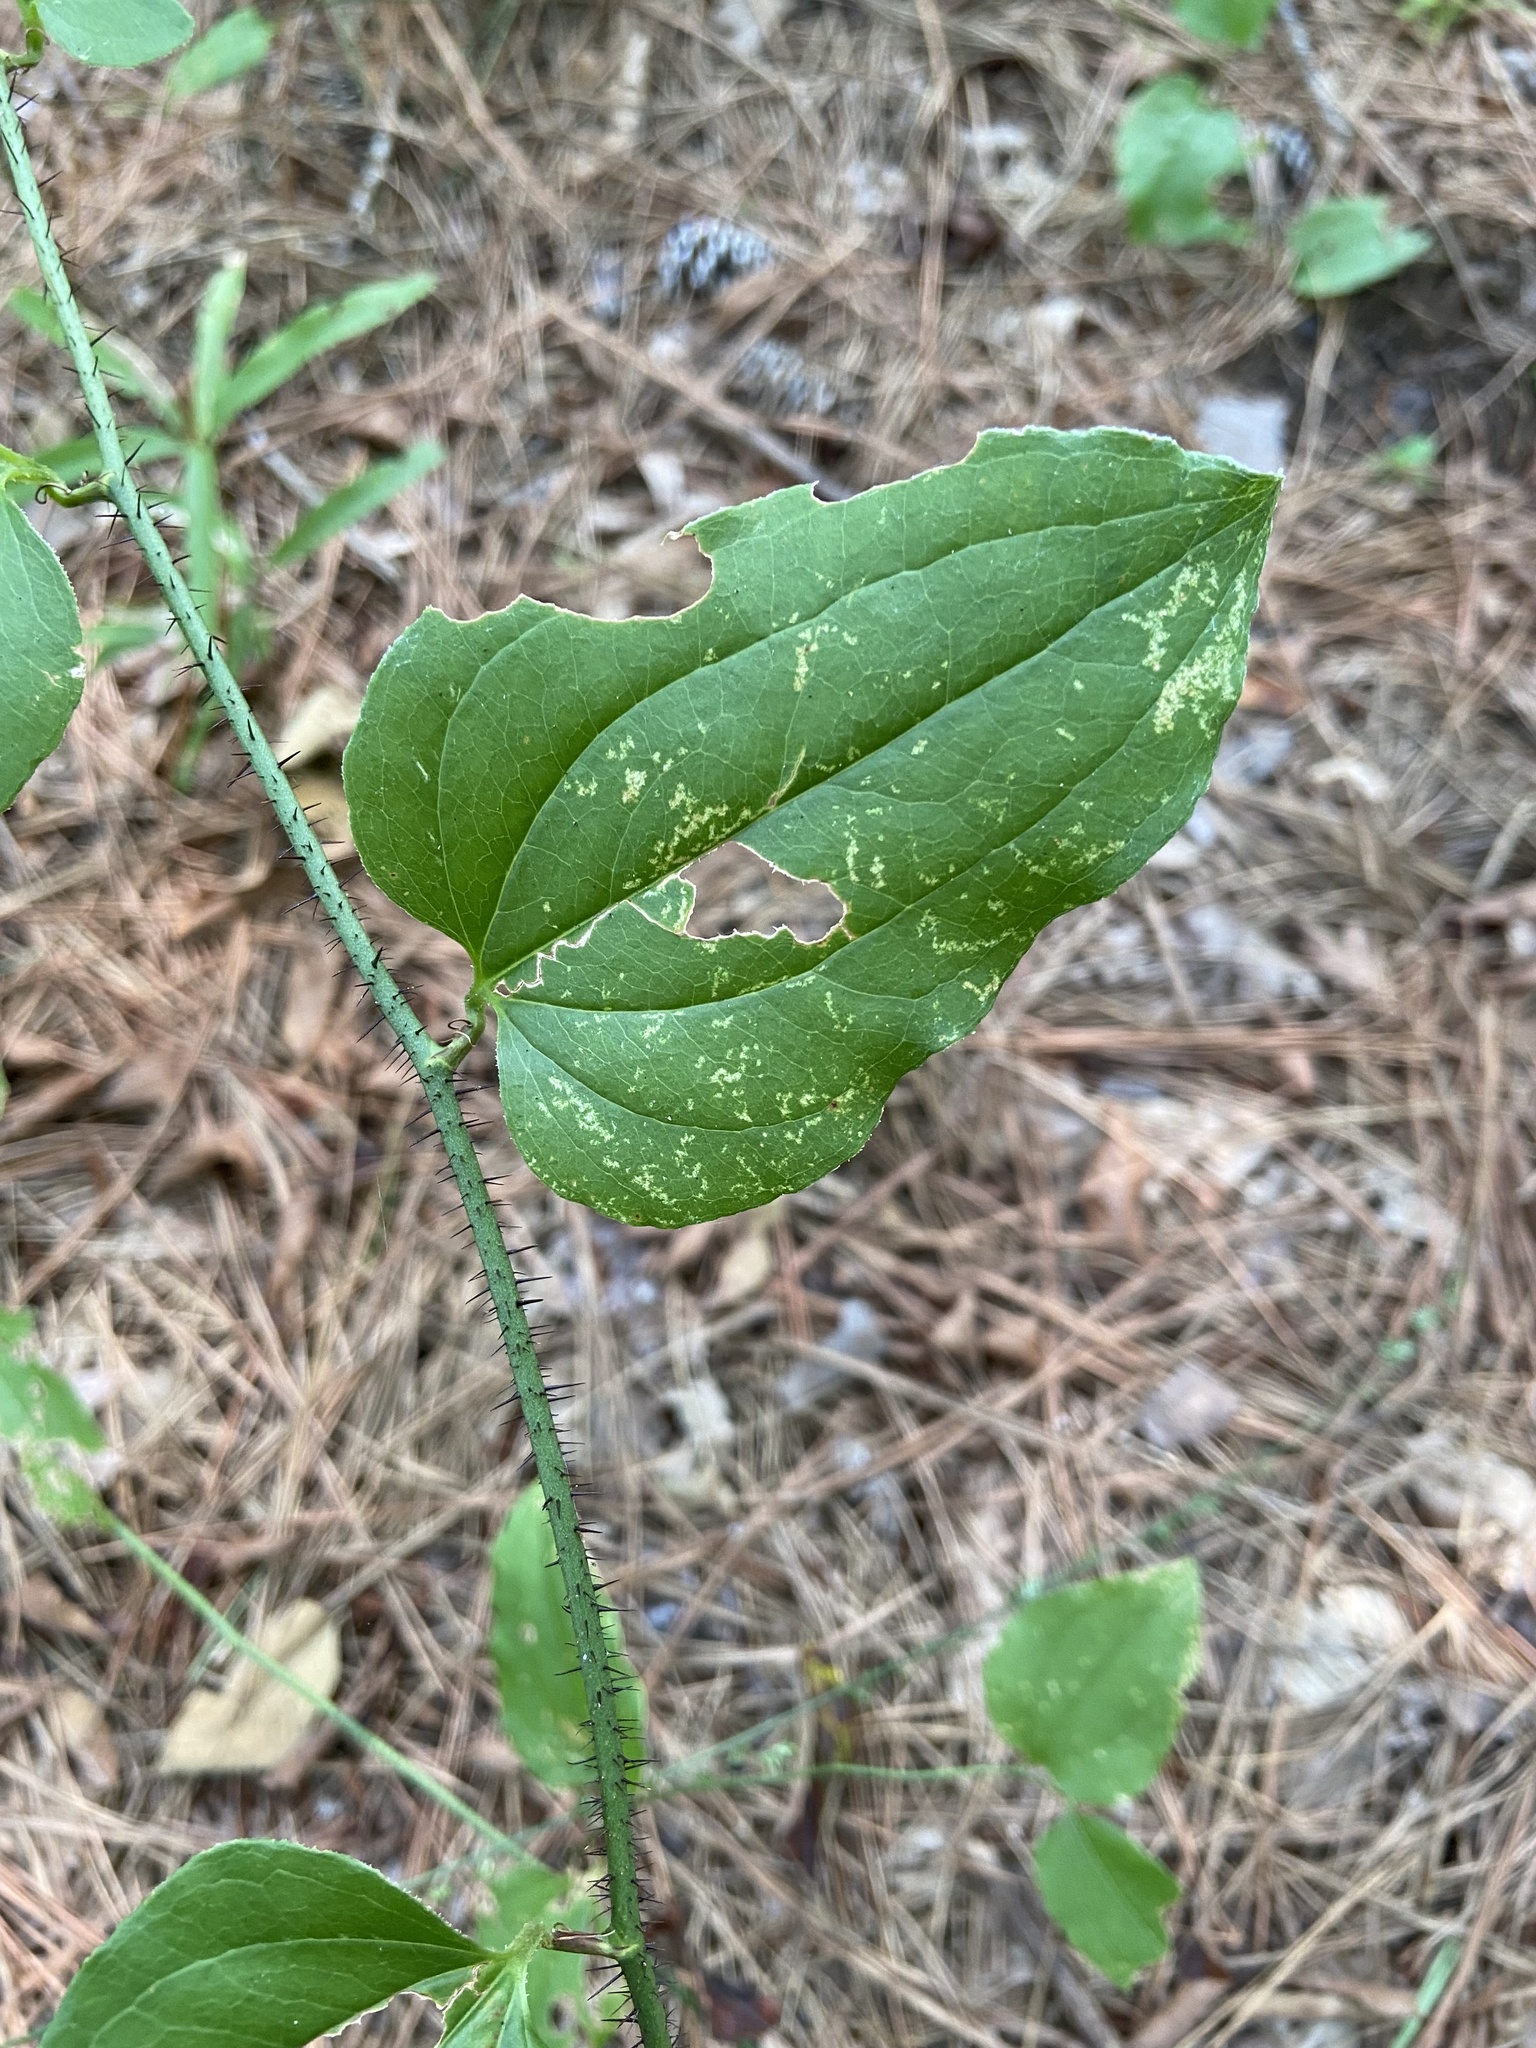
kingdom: Plantae
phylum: Tracheophyta
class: Liliopsida
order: Liliales
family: Smilacaceae
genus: Smilax
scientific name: Smilax tamnoides
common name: Hellfetter
